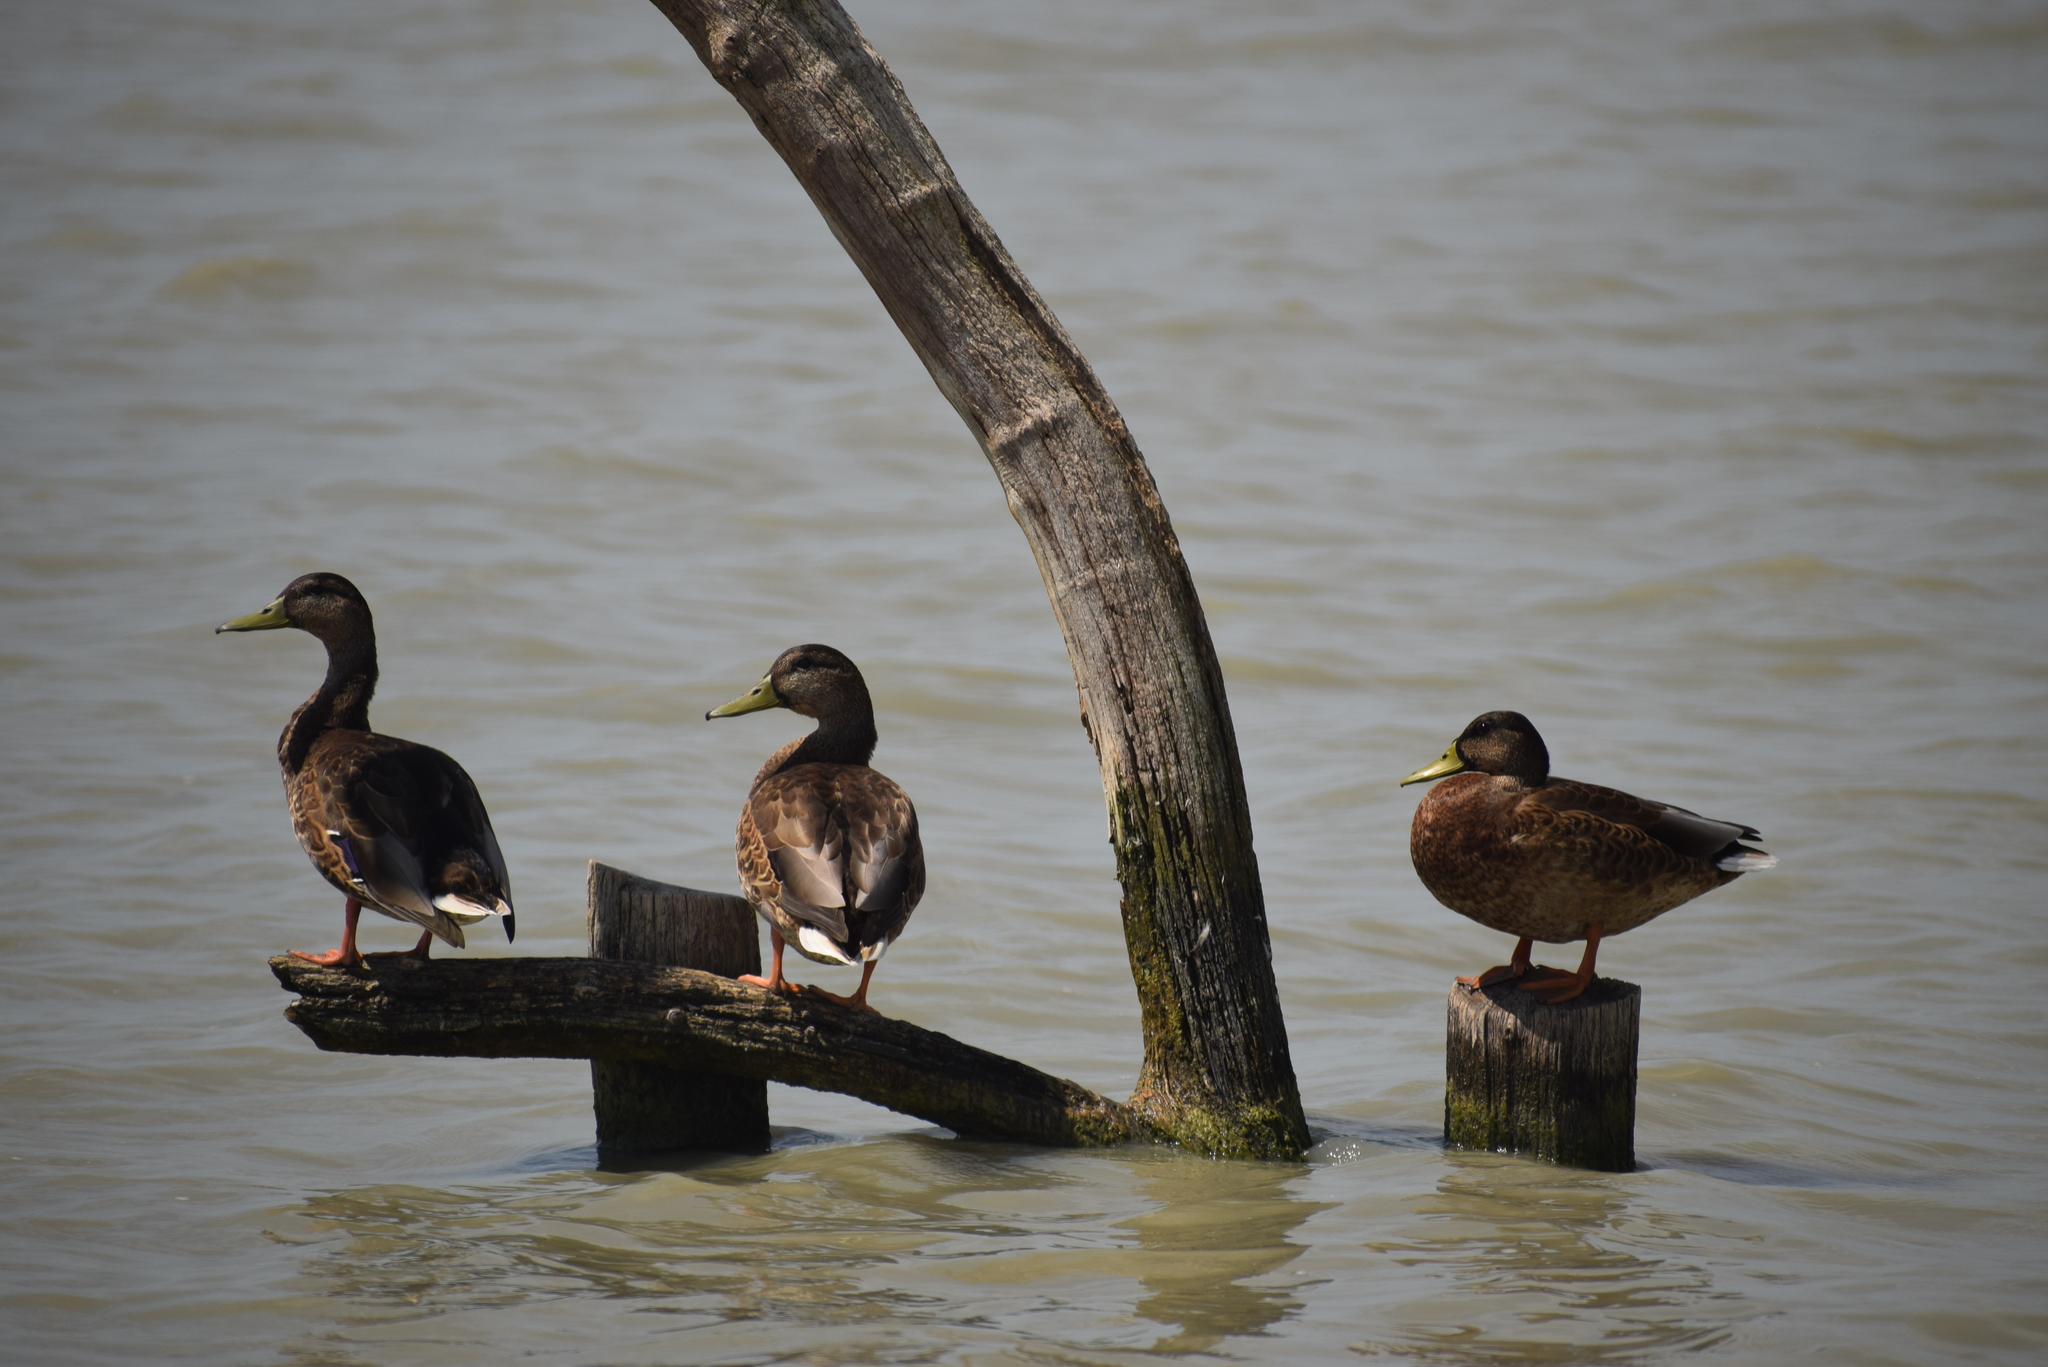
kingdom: Animalia
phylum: Chordata
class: Aves
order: Anseriformes
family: Anatidae
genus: Anas
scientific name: Anas platyrhynchos
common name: Mallard
